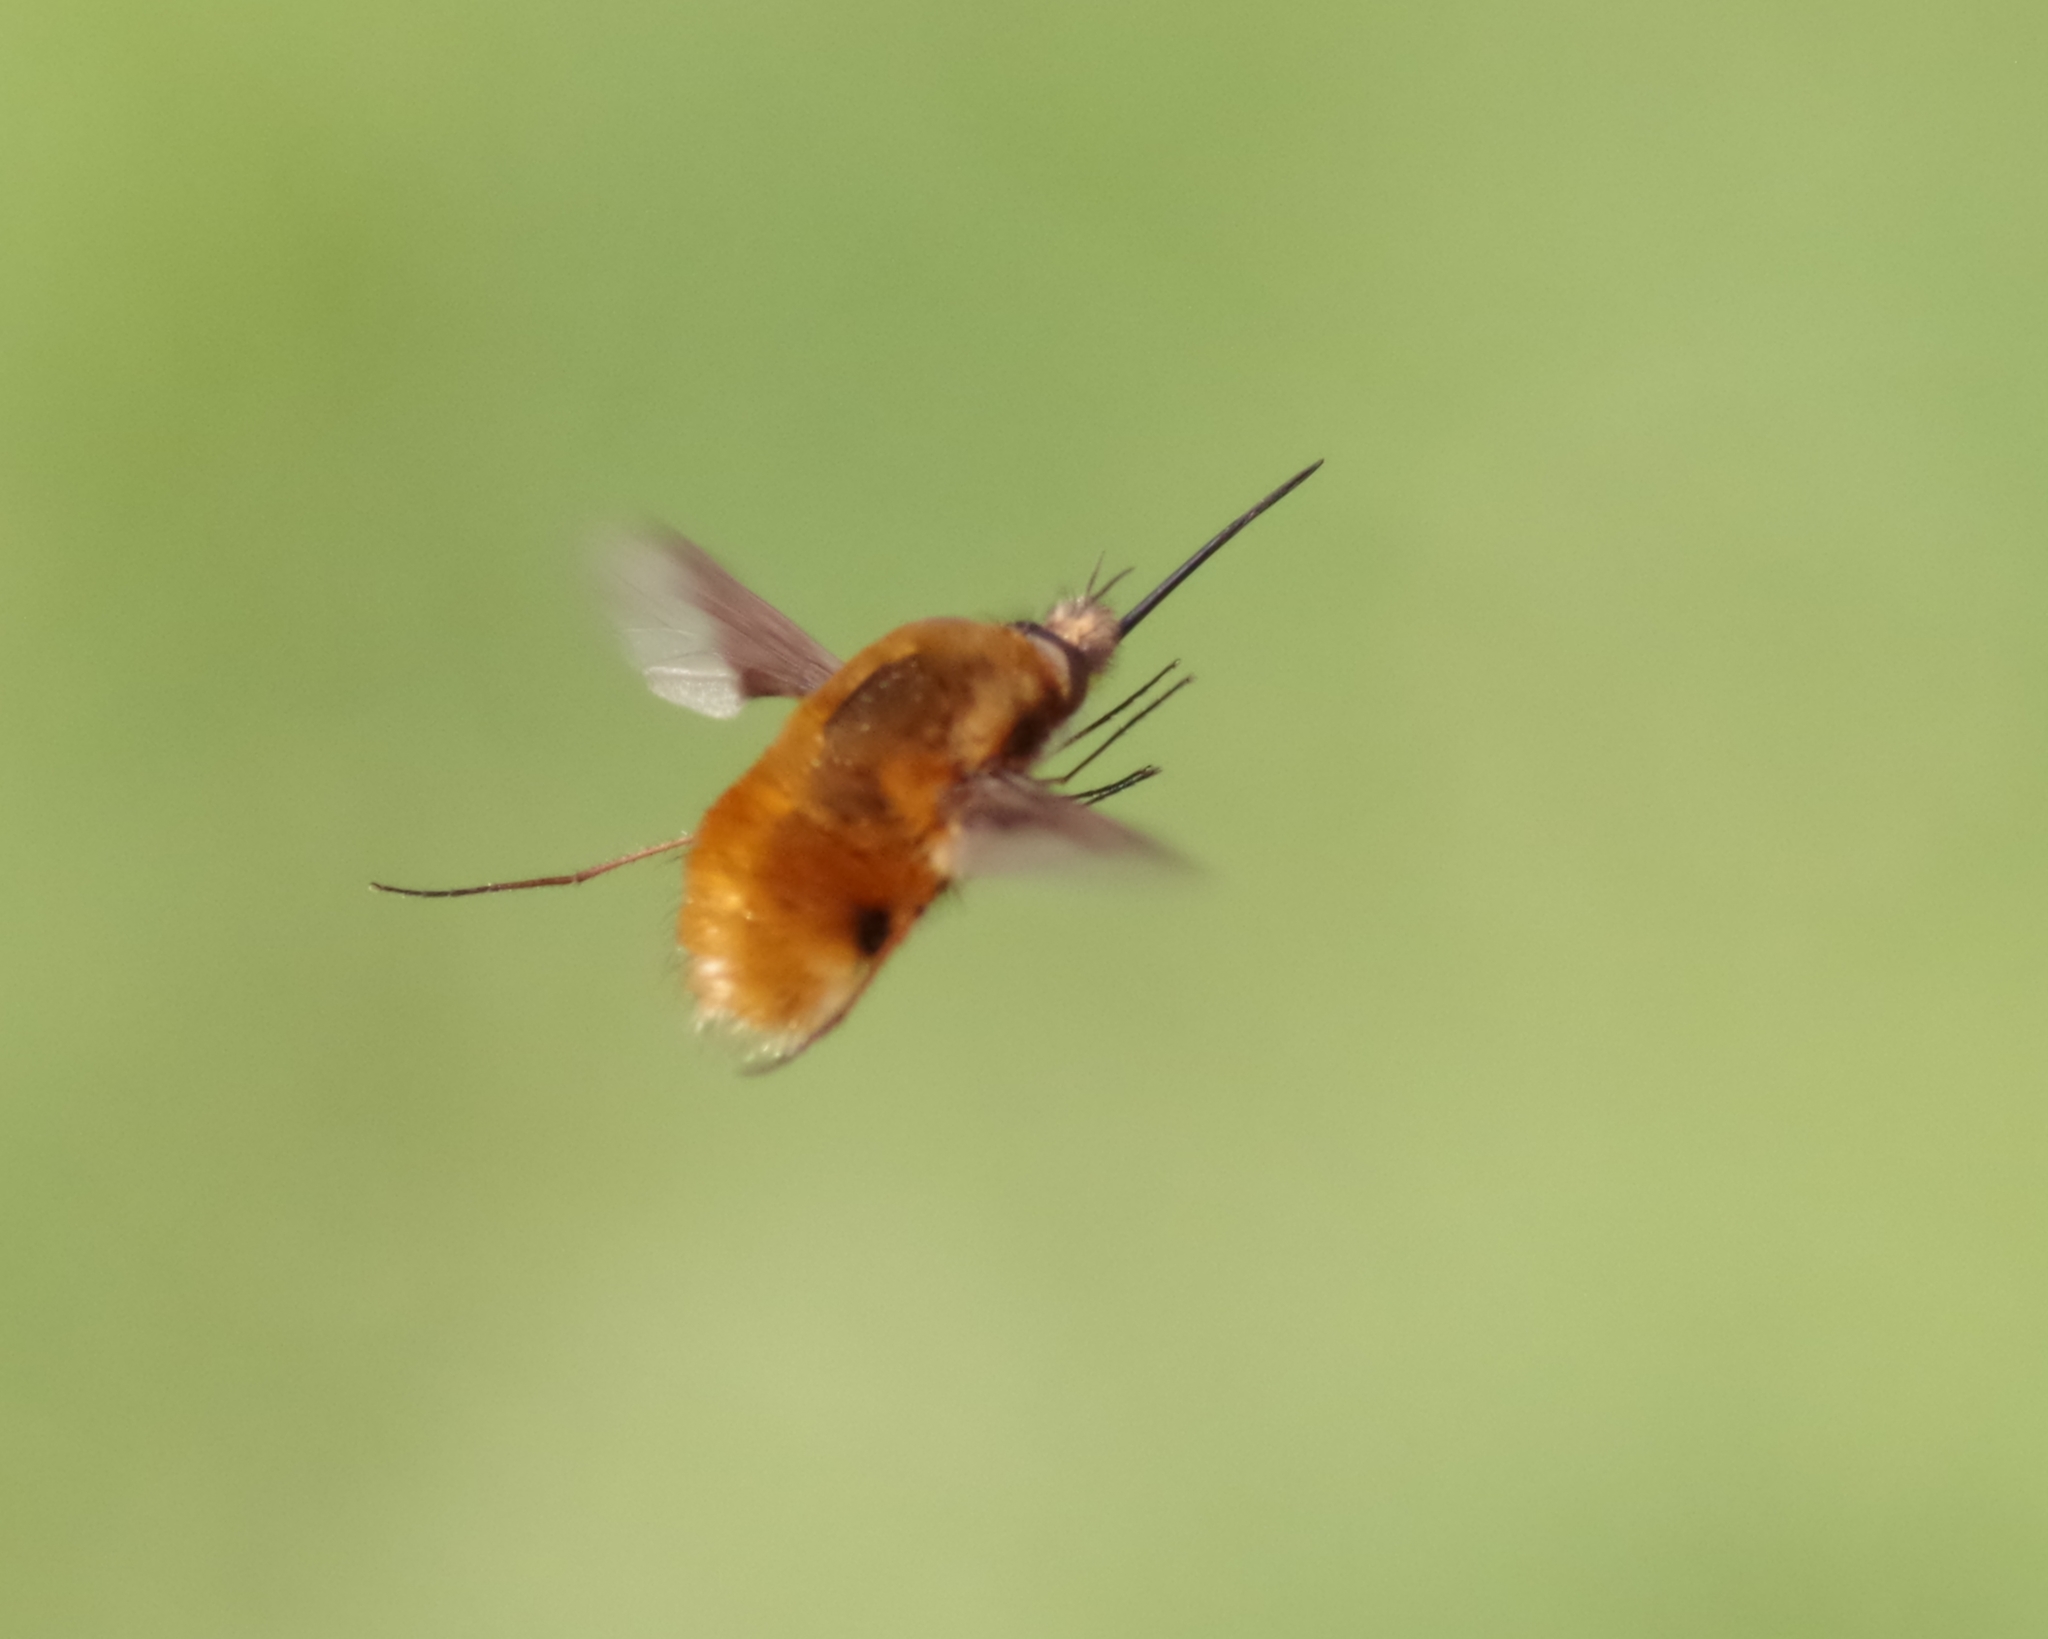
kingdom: Animalia
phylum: Arthropoda
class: Insecta
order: Diptera
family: Bombyliidae
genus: Bombylius
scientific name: Bombylius major
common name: Bee fly
